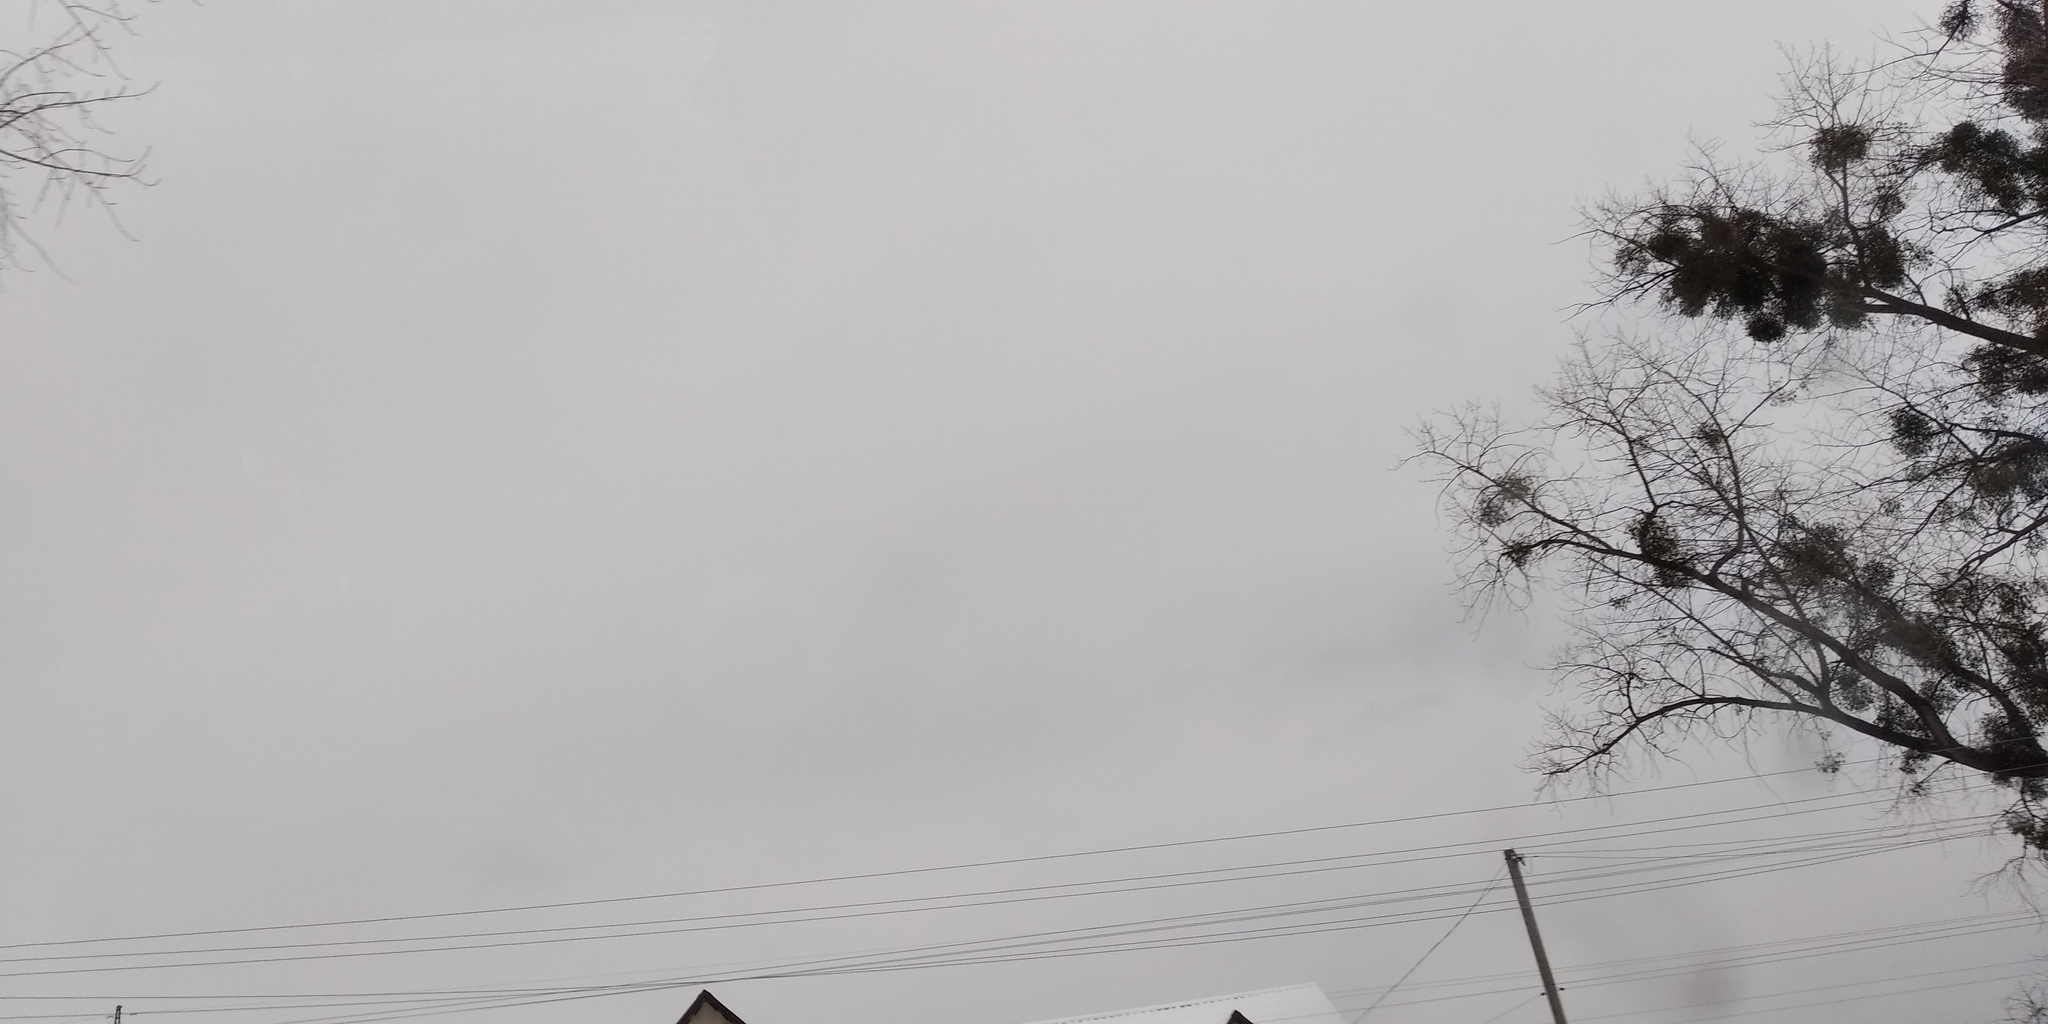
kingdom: Plantae
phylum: Tracheophyta
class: Magnoliopsida
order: Santalales
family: Viscaceae
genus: Viscum
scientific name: Viscum album
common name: Mistletoe
